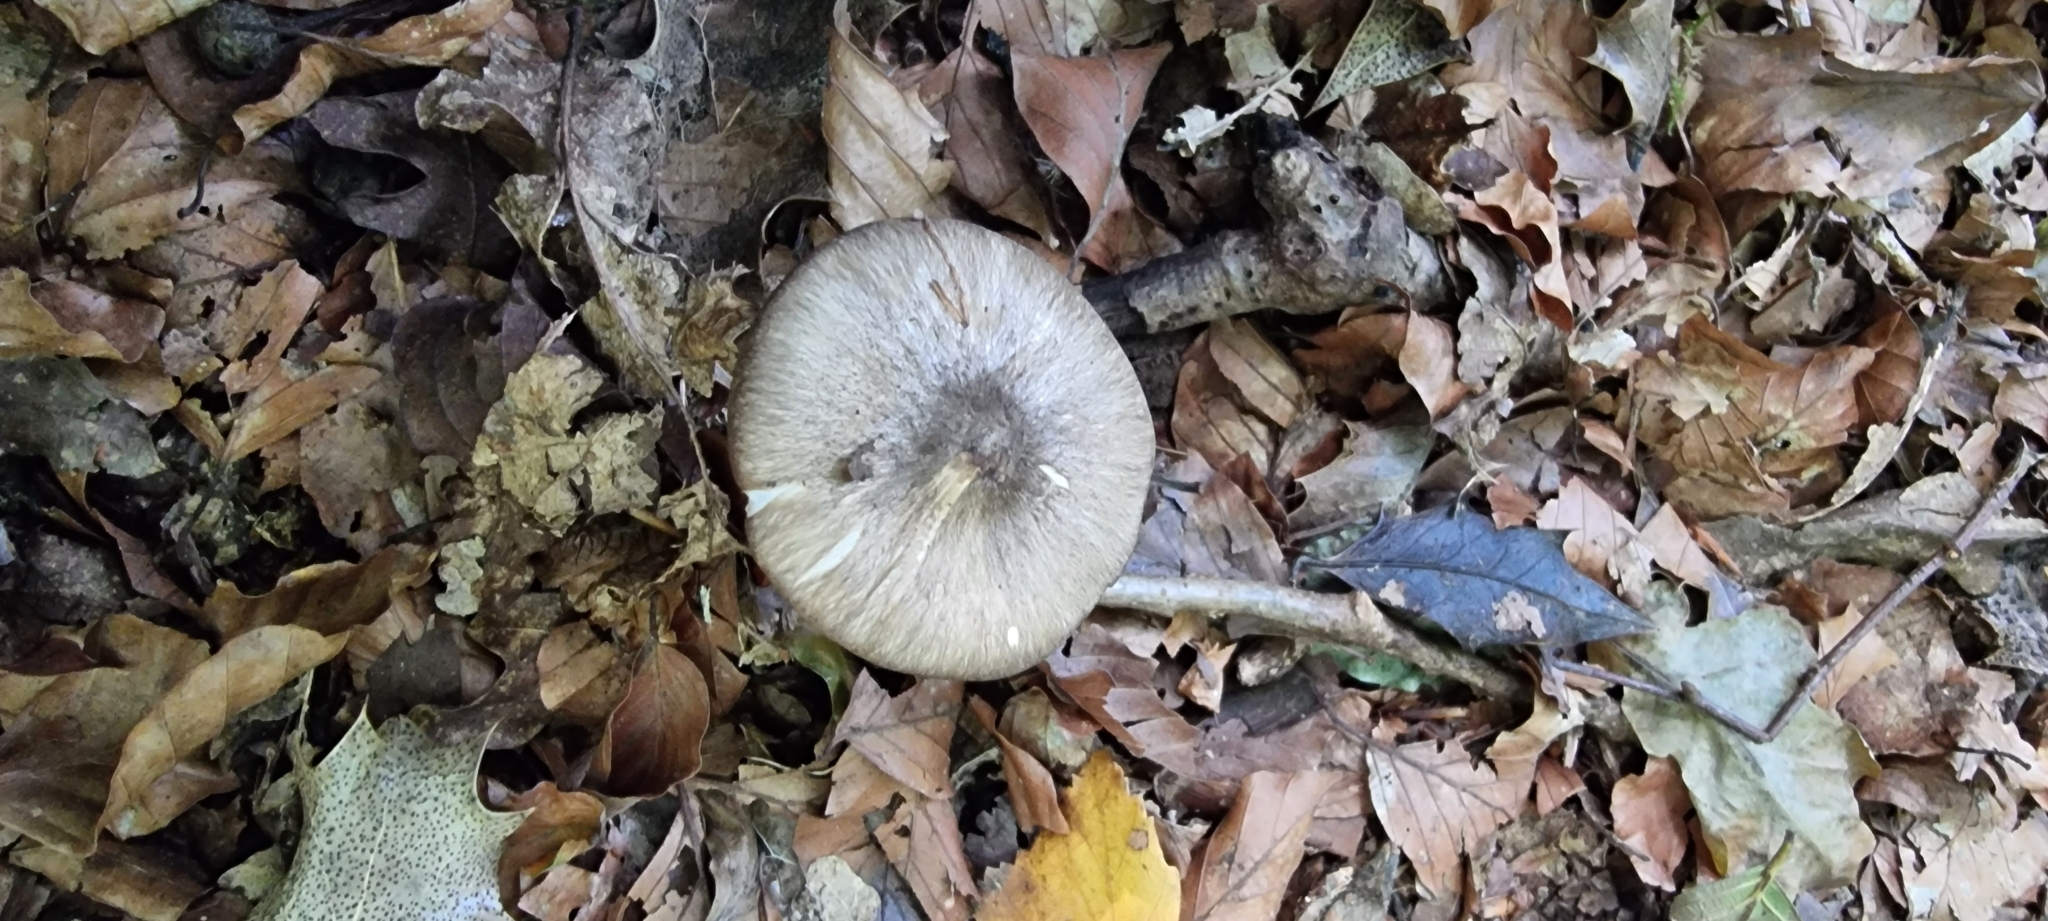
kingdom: Fungi
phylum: Basidiomycota
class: Agaricomycetes
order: Agaricales
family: Tricholomataceae
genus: Megacollybia
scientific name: Megacollybia platyphylla
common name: Whitelaced shank
